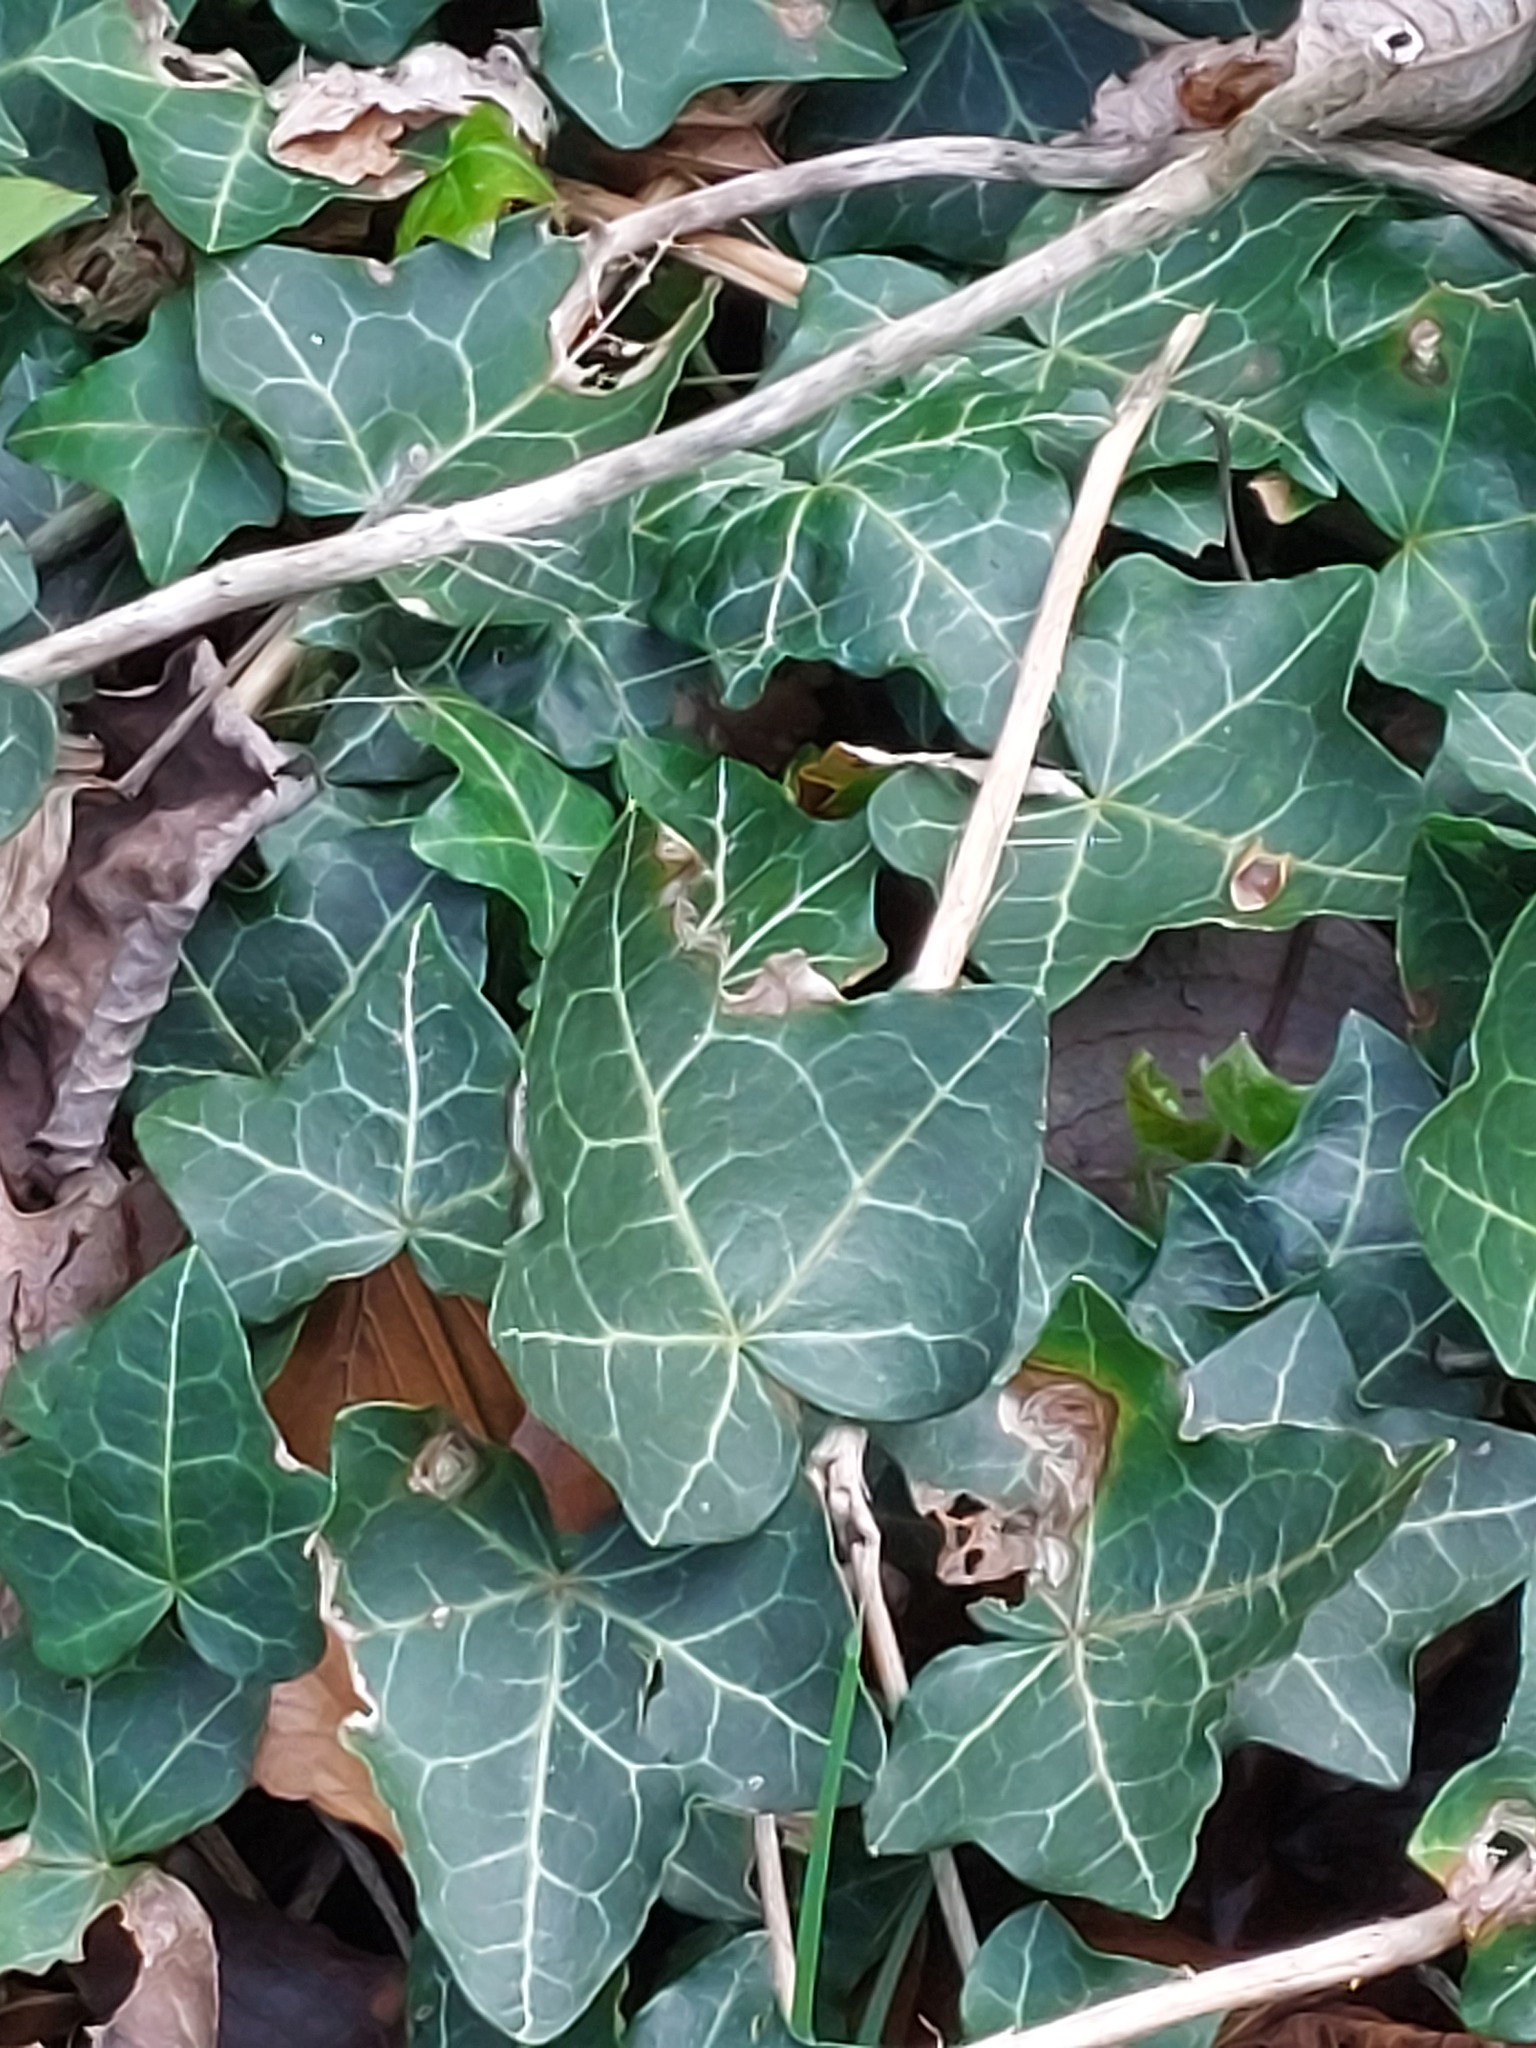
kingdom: Plantae
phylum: Tracheophyta
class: Magnoliopsida
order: Apiales
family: Araliaceae
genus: Hedera
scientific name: Hedera helix
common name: Ivy
